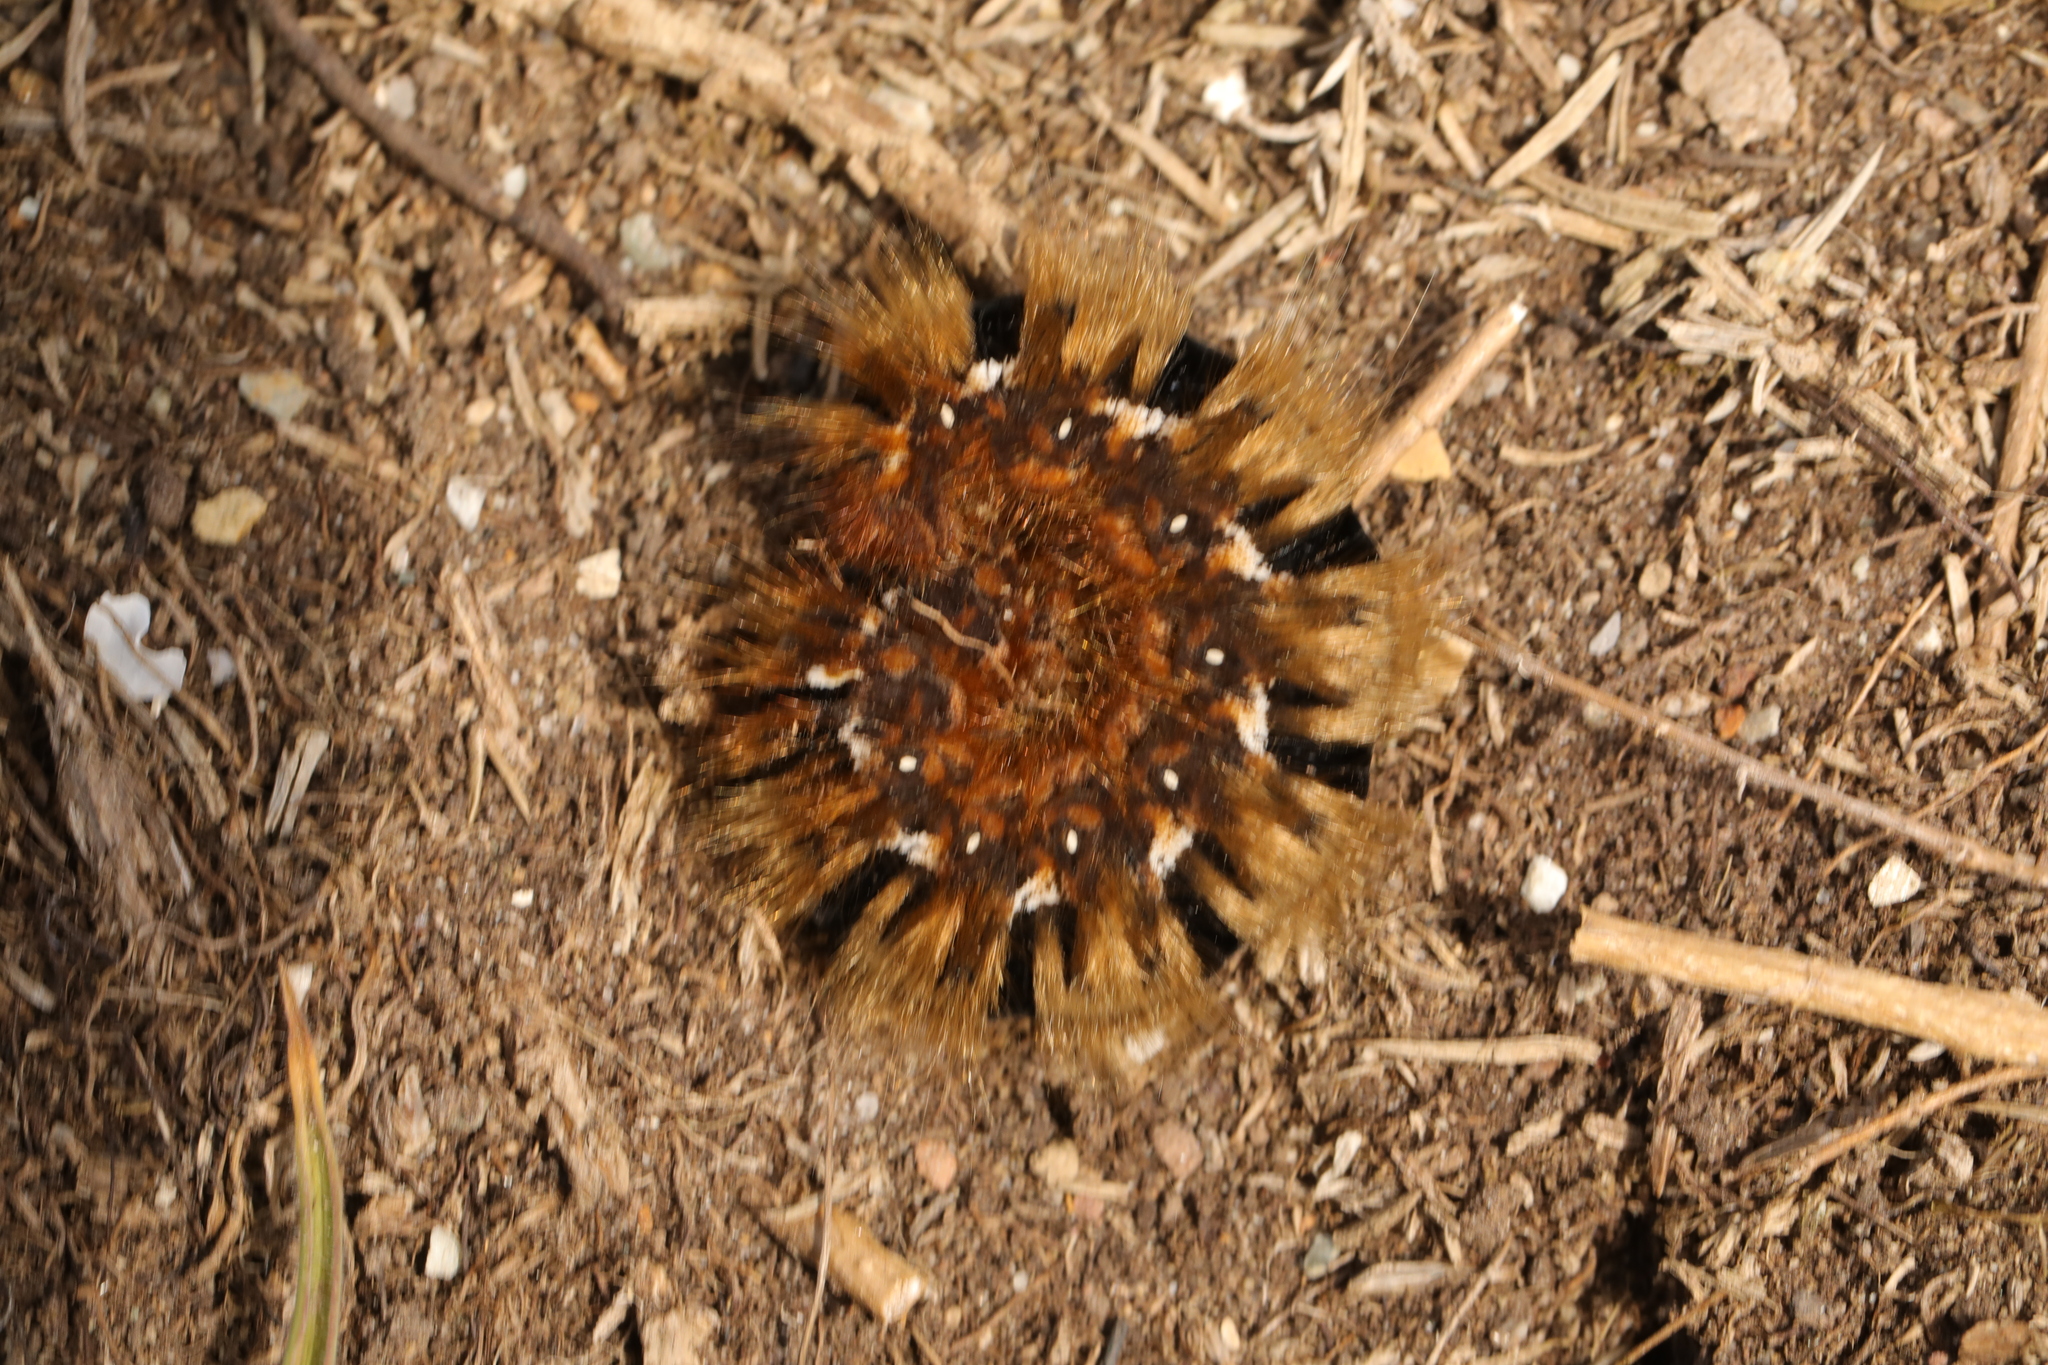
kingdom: Animalia
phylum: Arthropoda
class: Insecta
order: Lepidoptera
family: Lasiocampidae
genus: Lasiocampa
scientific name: Lasiocampa quercus
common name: Oak eggar
